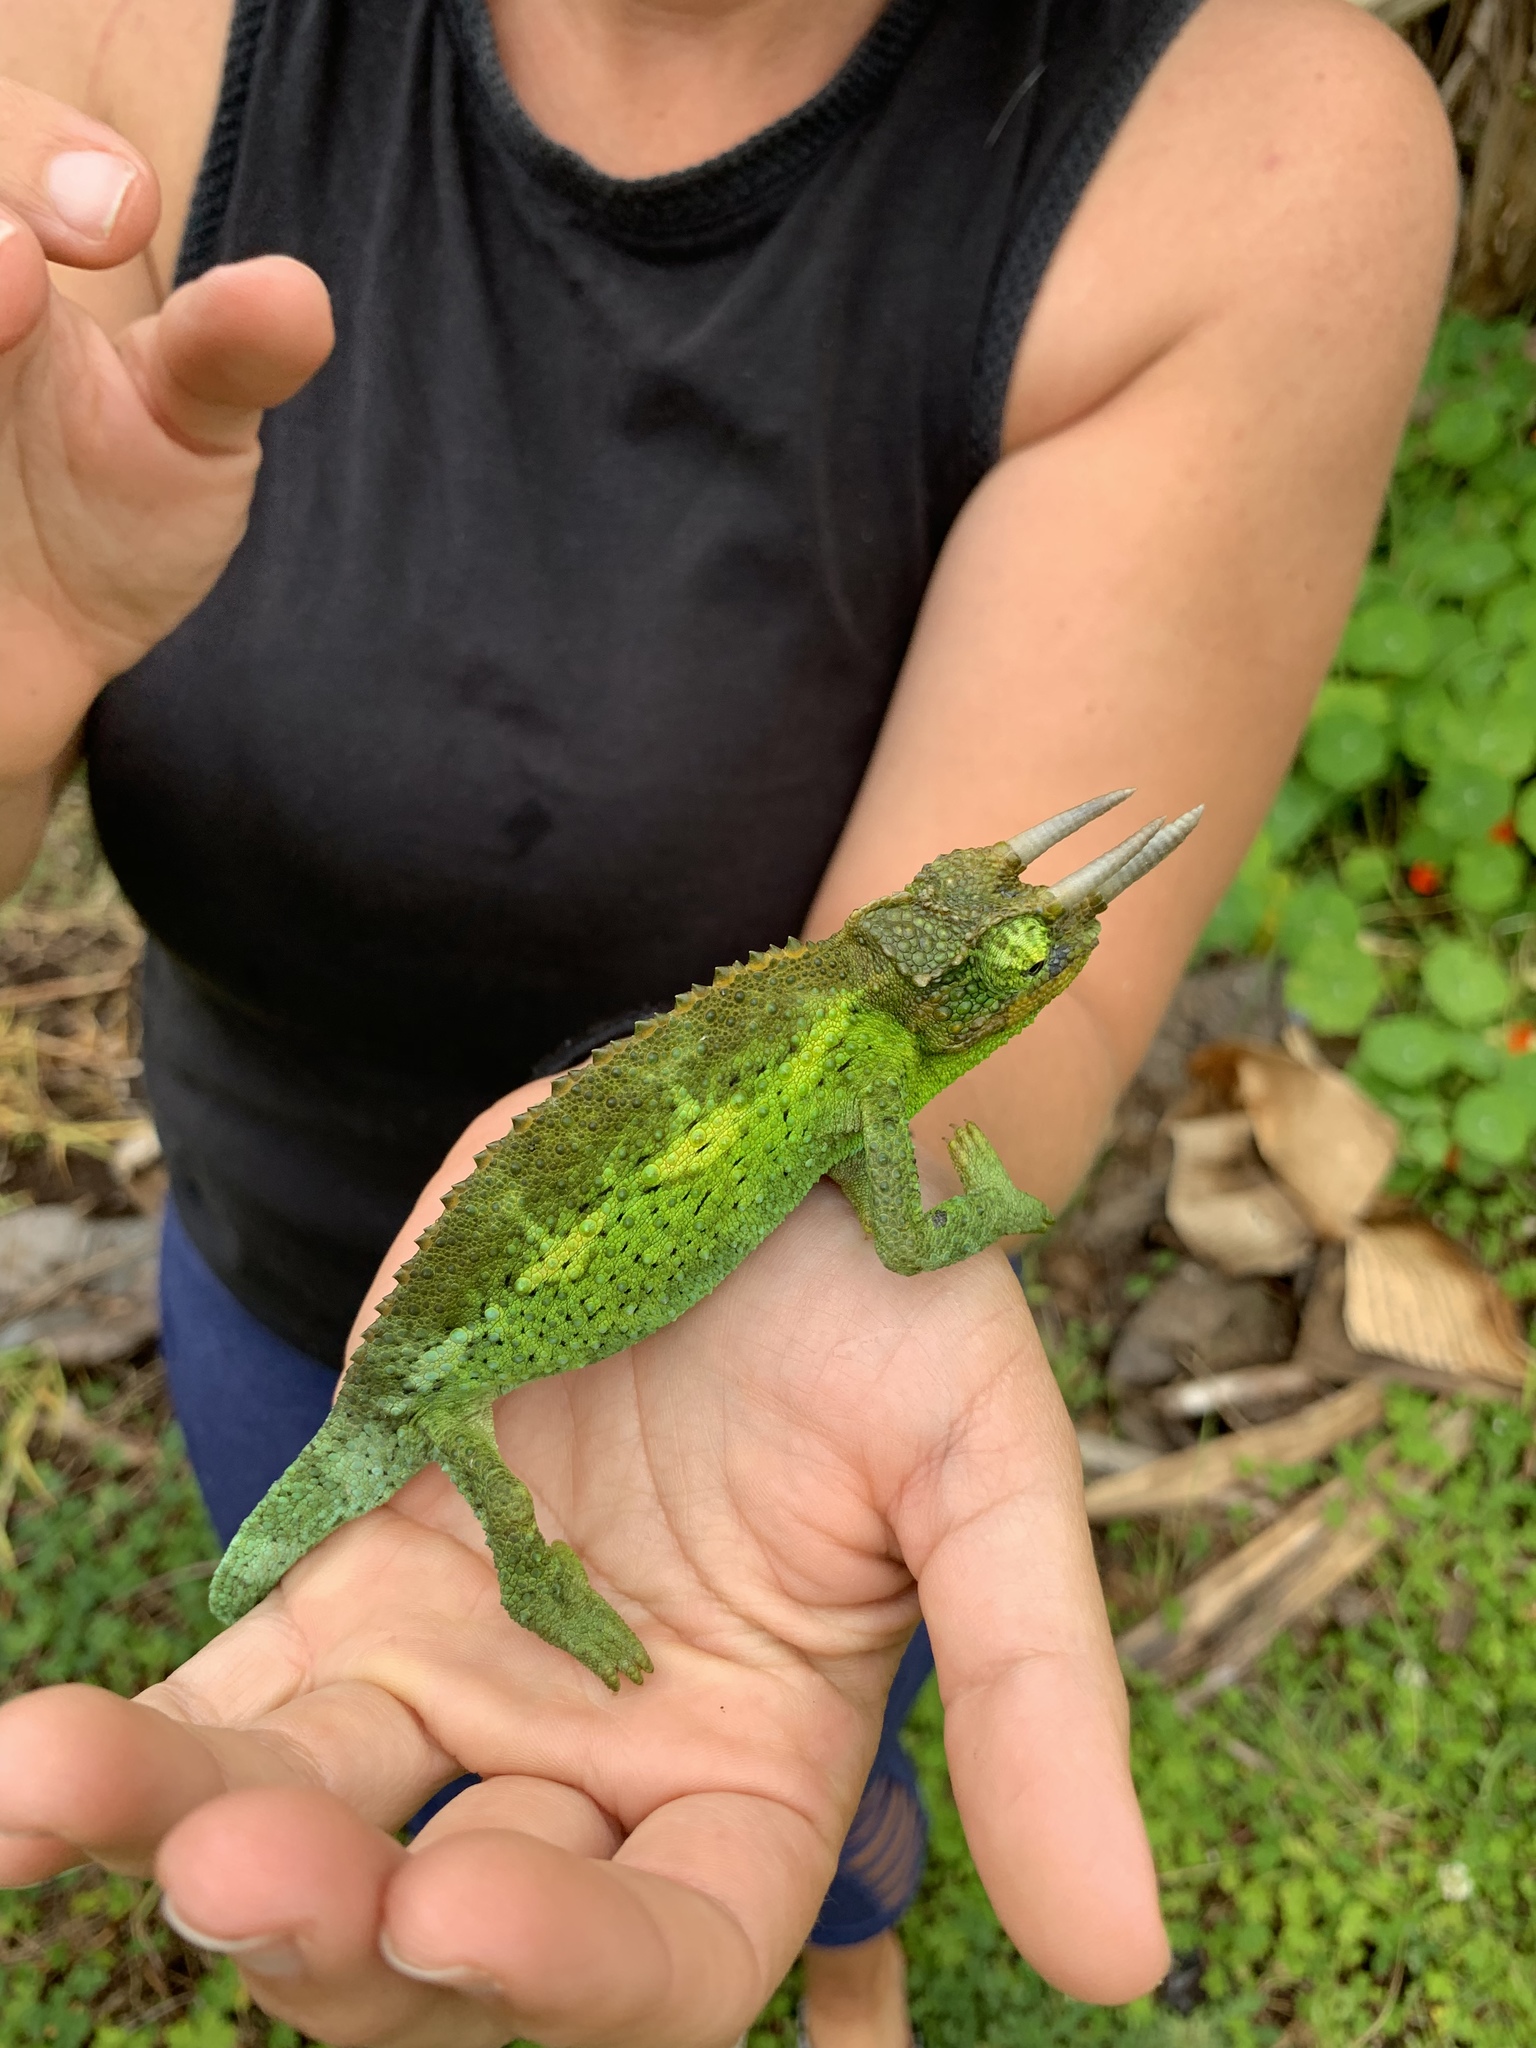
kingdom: Animalia
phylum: Chordata
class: Squamata
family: Chamaeleonidae
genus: Trioceros
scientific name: Trioceros jacksonii
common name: Jackson's chameleon
